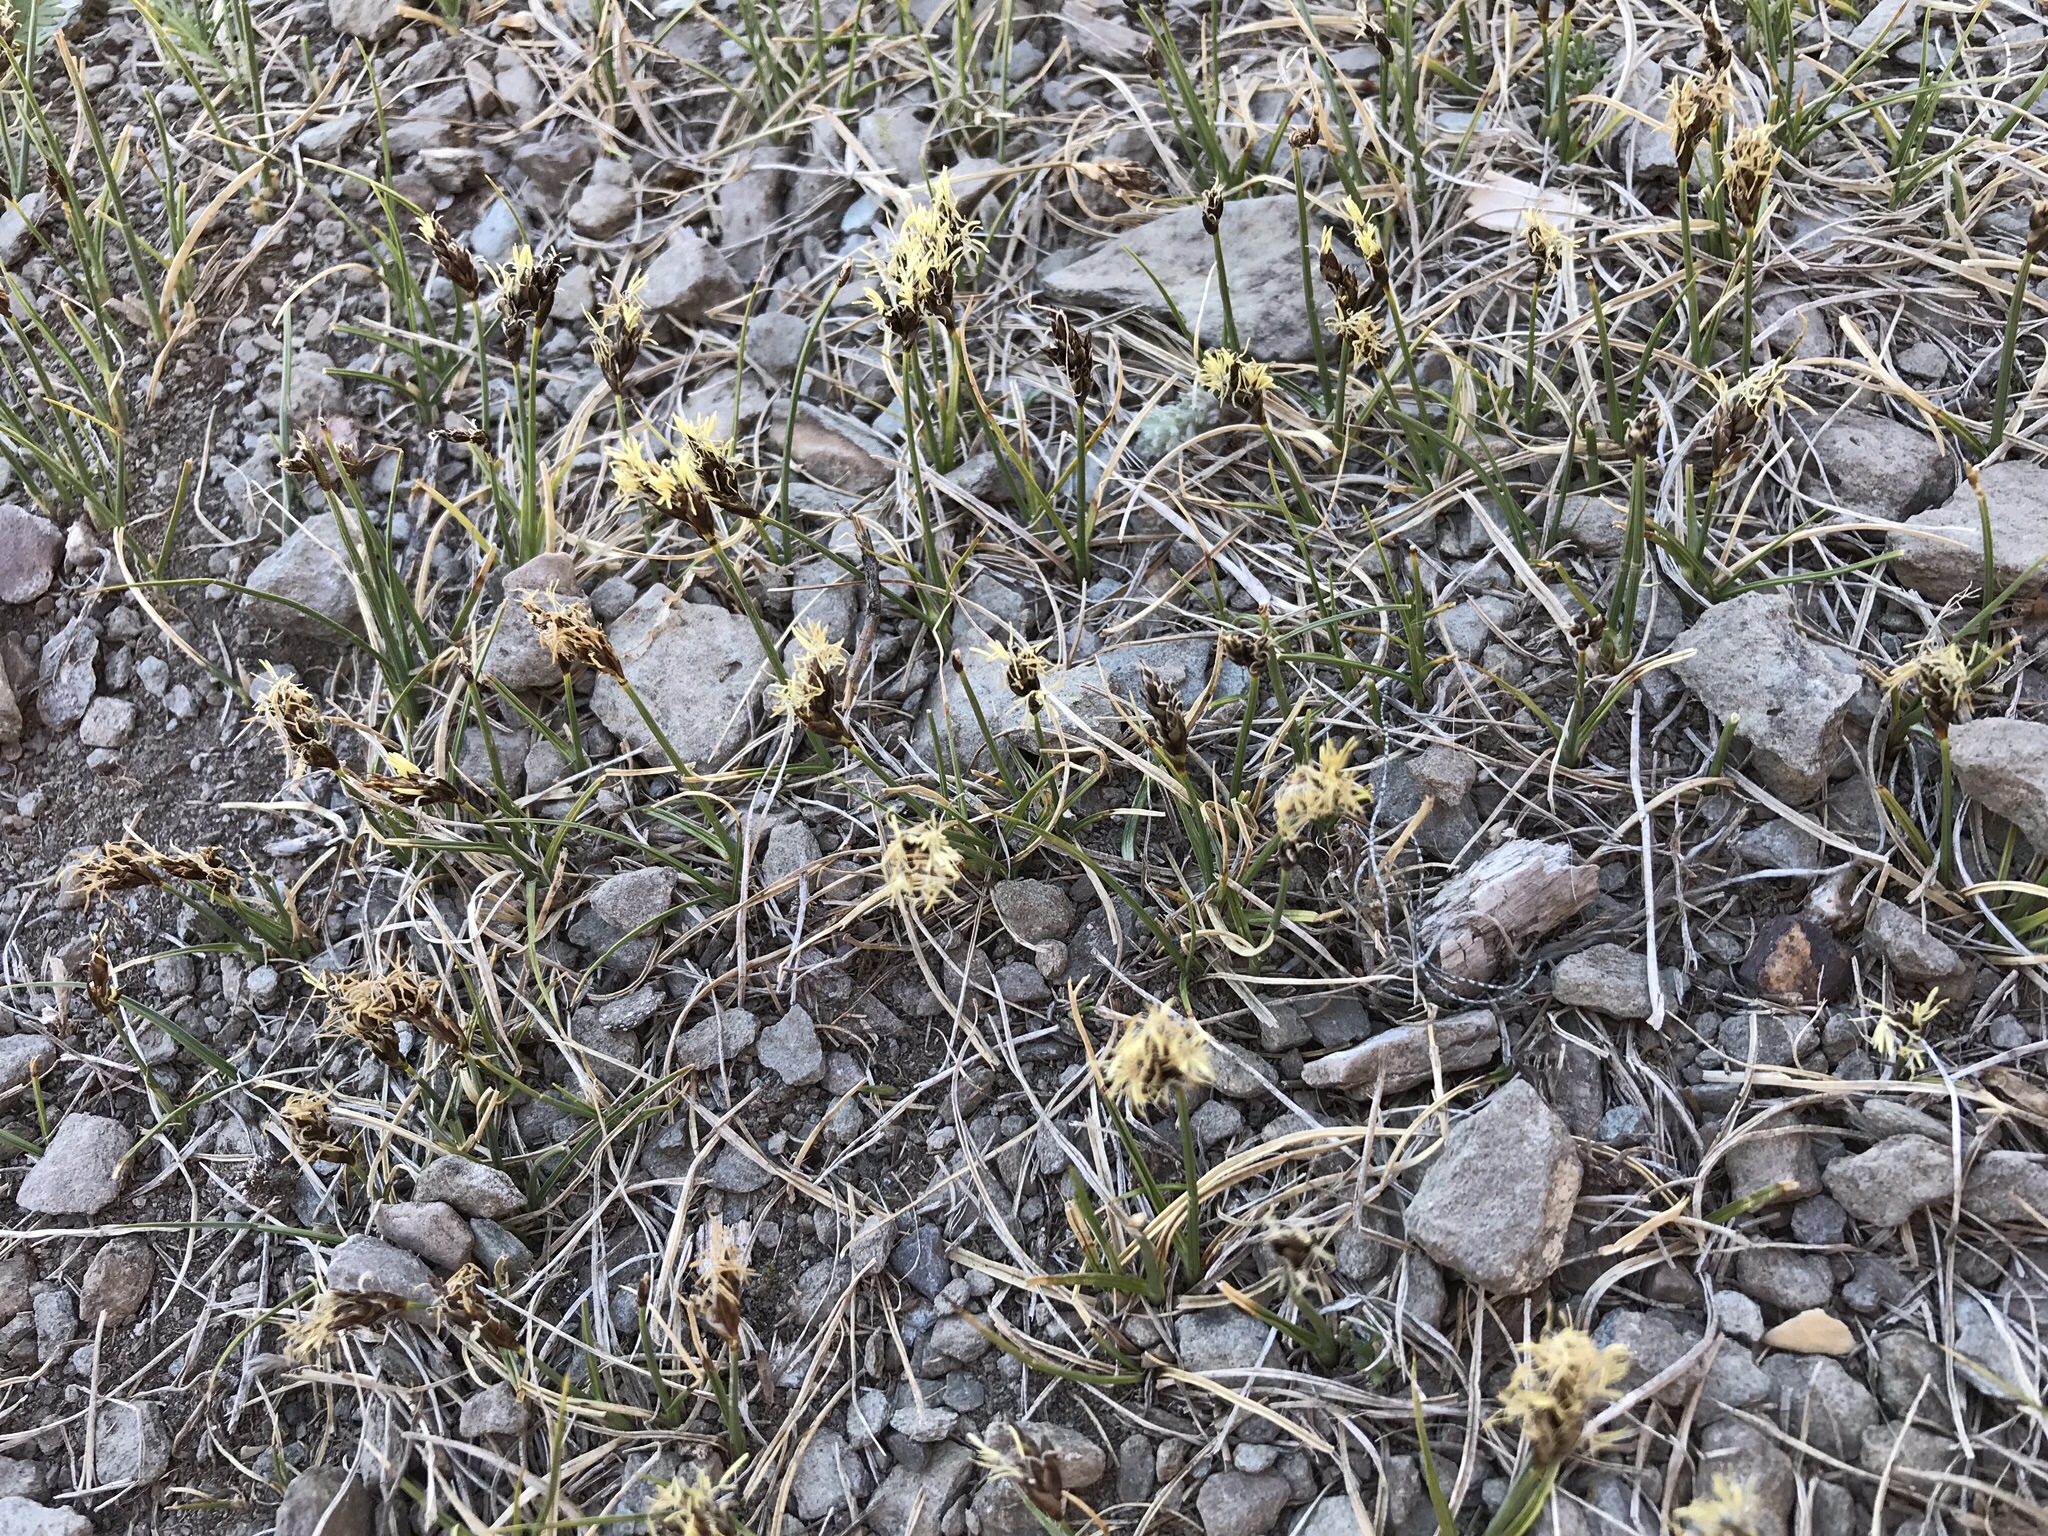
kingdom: Plantae
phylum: Tracheophyta
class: Liliopsida
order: Poales
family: Cyperaceae
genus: Carex
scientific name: Carex duriuscula
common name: Involute-leaved sedge
